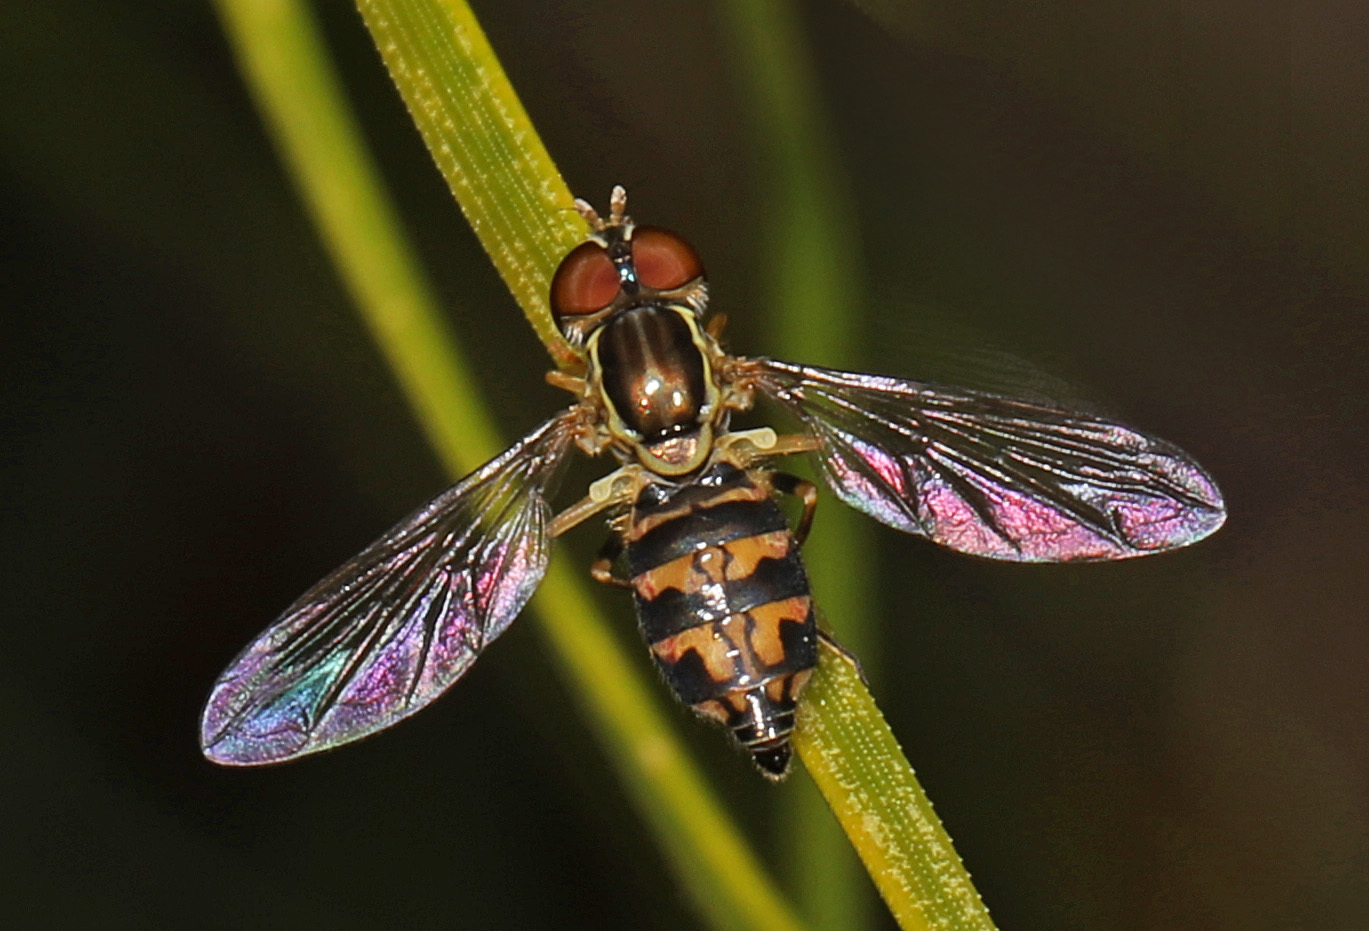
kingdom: Animalia
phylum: Arthropoda
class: Insecta
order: Diptera
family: Syrphidae
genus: Toxomerus
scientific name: Toxomerus geminatus
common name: Eastern calligrapher
